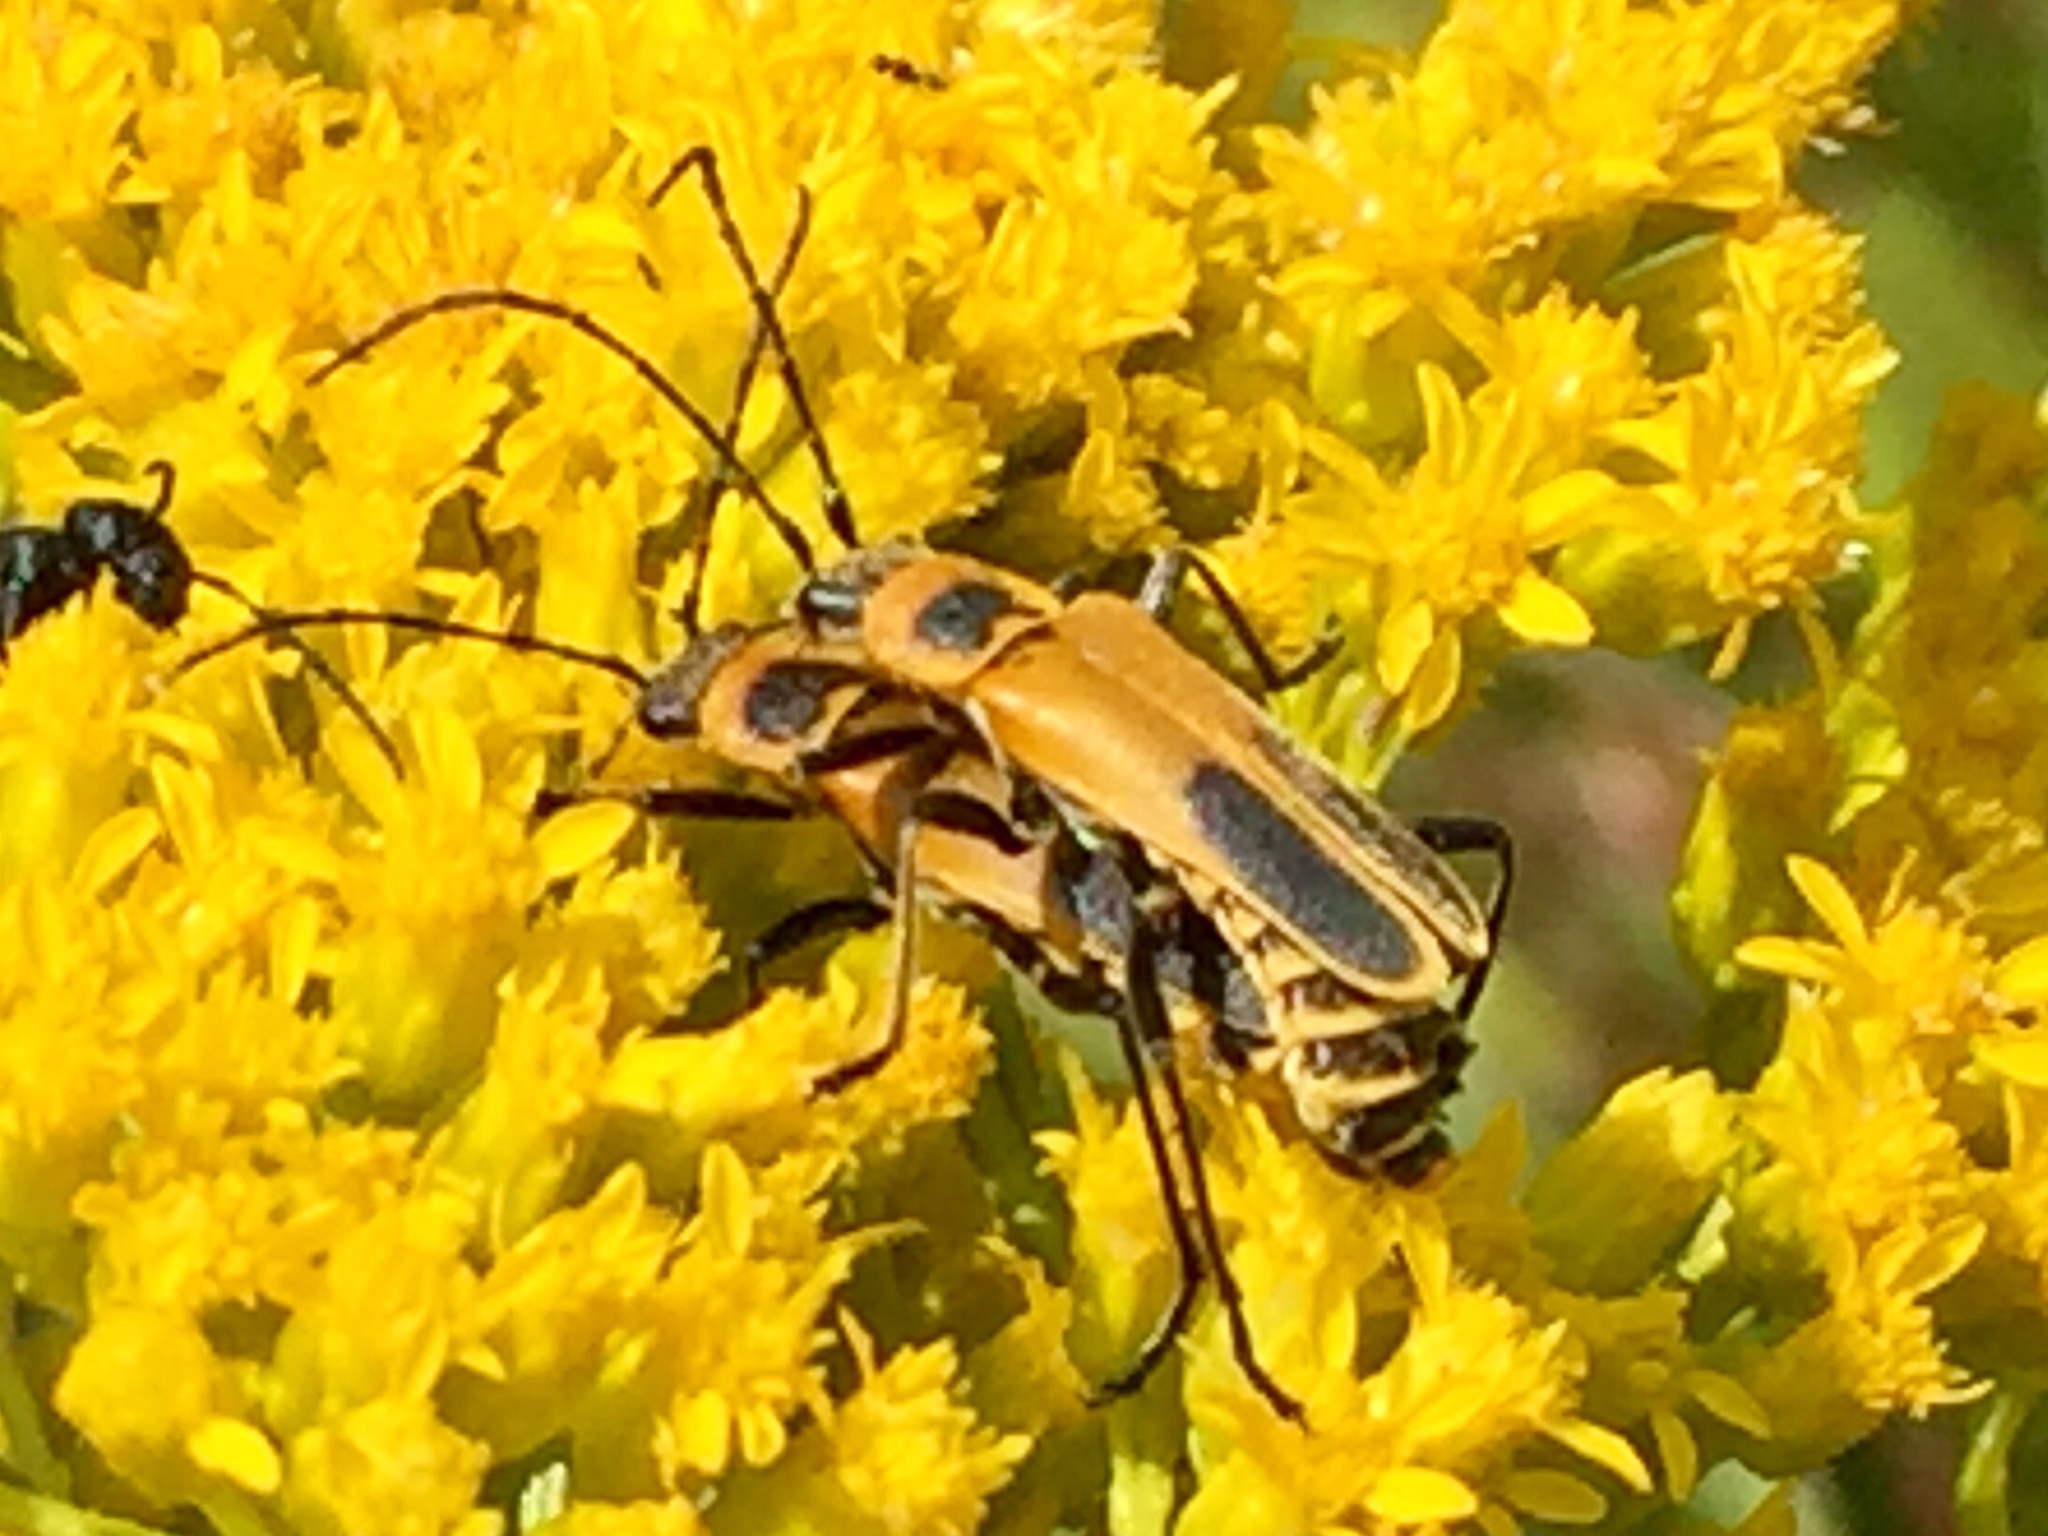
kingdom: Animalia
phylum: Arthropoda
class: Insecta
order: Coleoptera
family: Cantharidae
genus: Chauliognathus
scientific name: Chauliognathus pensylvanicus
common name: Goldenrod soldier beetle
